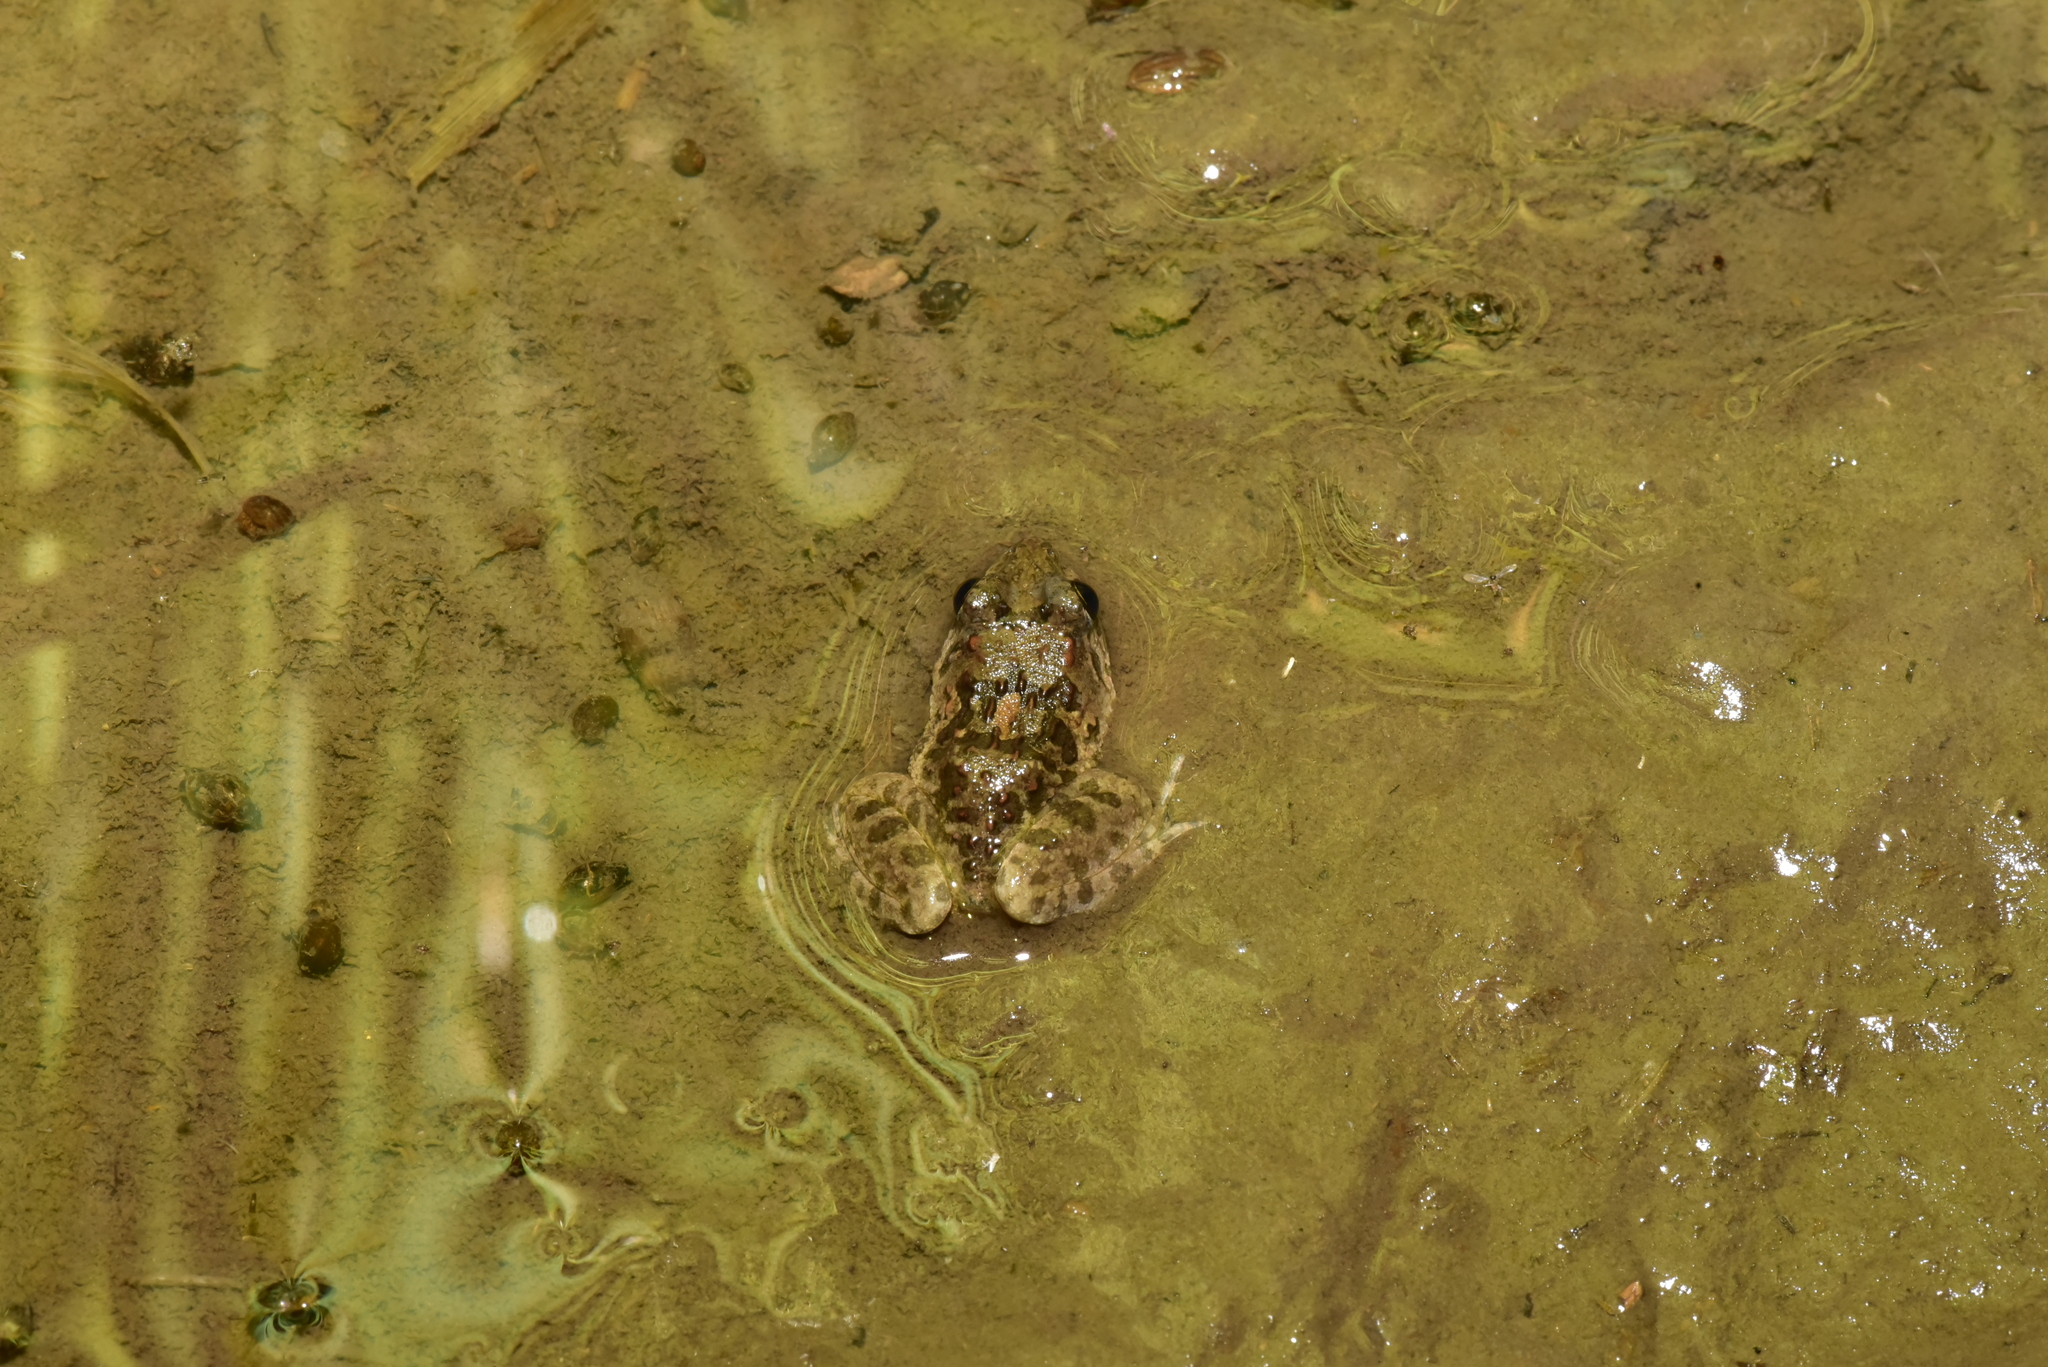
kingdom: Animalia
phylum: Chordata
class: Amphibia
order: Anura
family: Dicroglossidae
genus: Fejervarya
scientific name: Fejervarya limnocharis
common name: Asian grass frog/common pond frog/field frog/grass frog/indian rice frog
